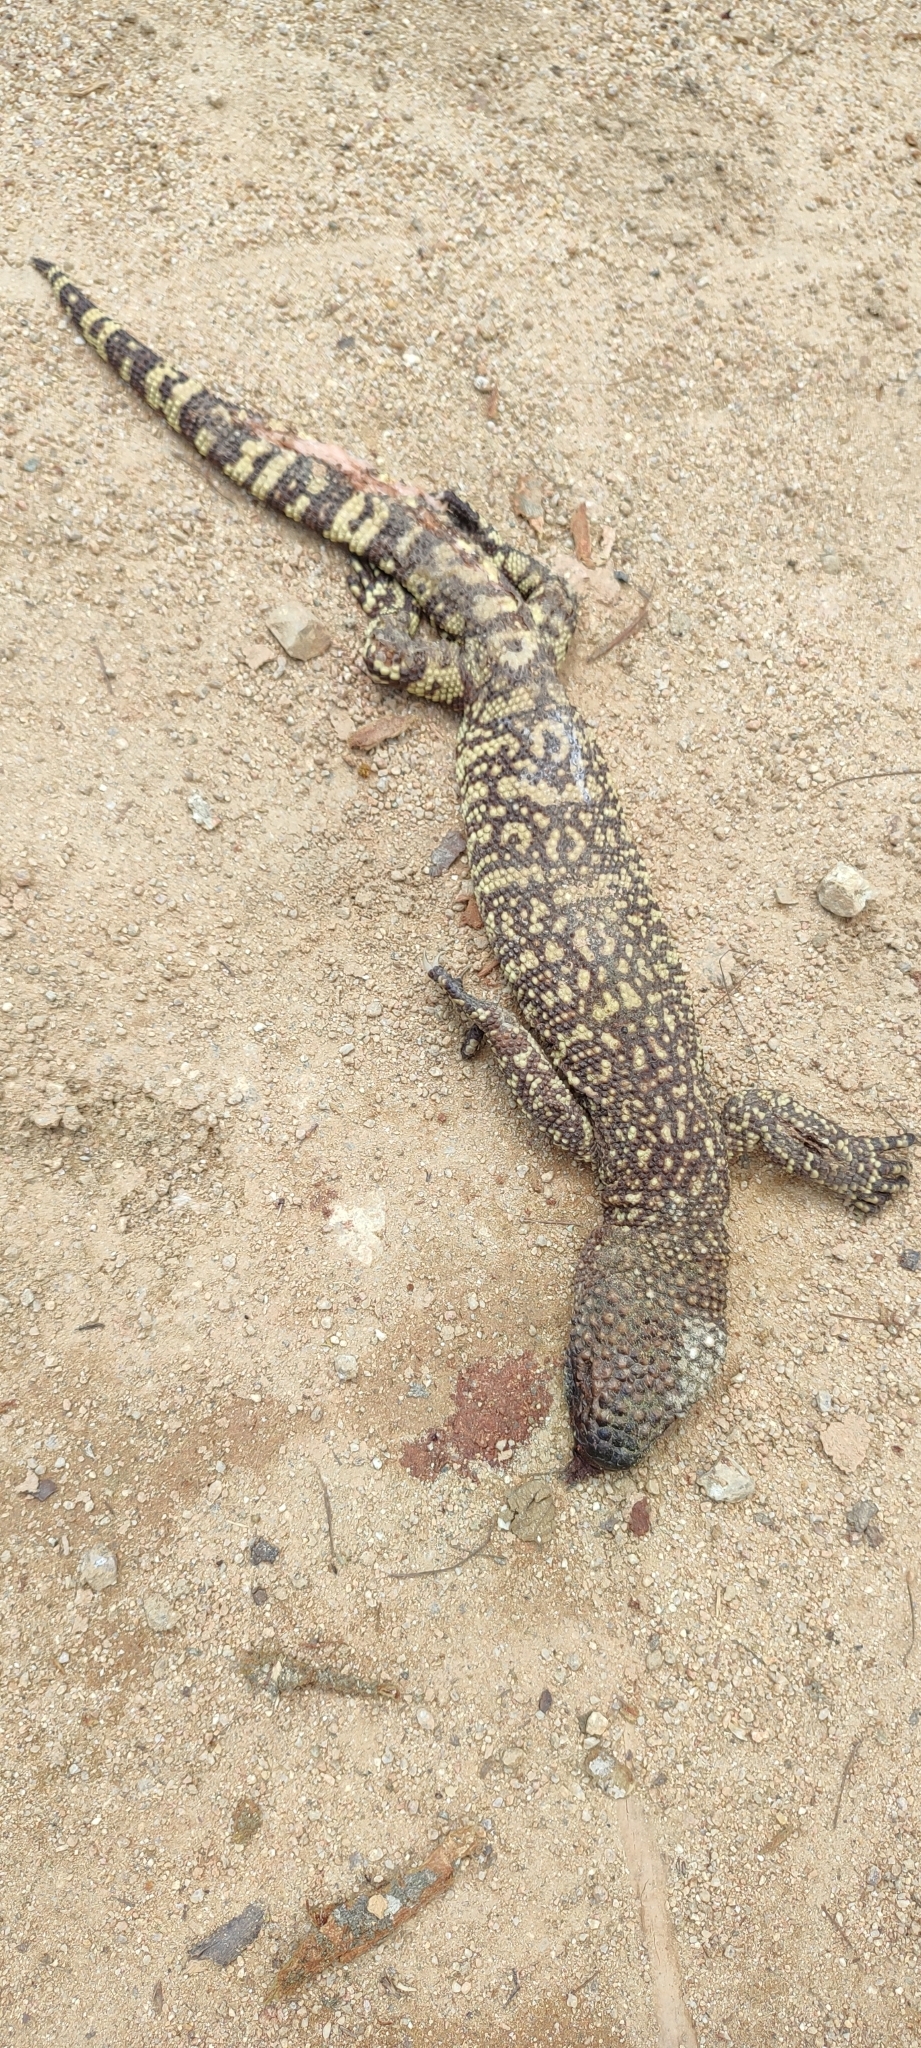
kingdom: Animalia
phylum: Chordata
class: Squamata
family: Helodermatidae
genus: Heloderma
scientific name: Heloderma horridum
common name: Mexican beaded lizard
